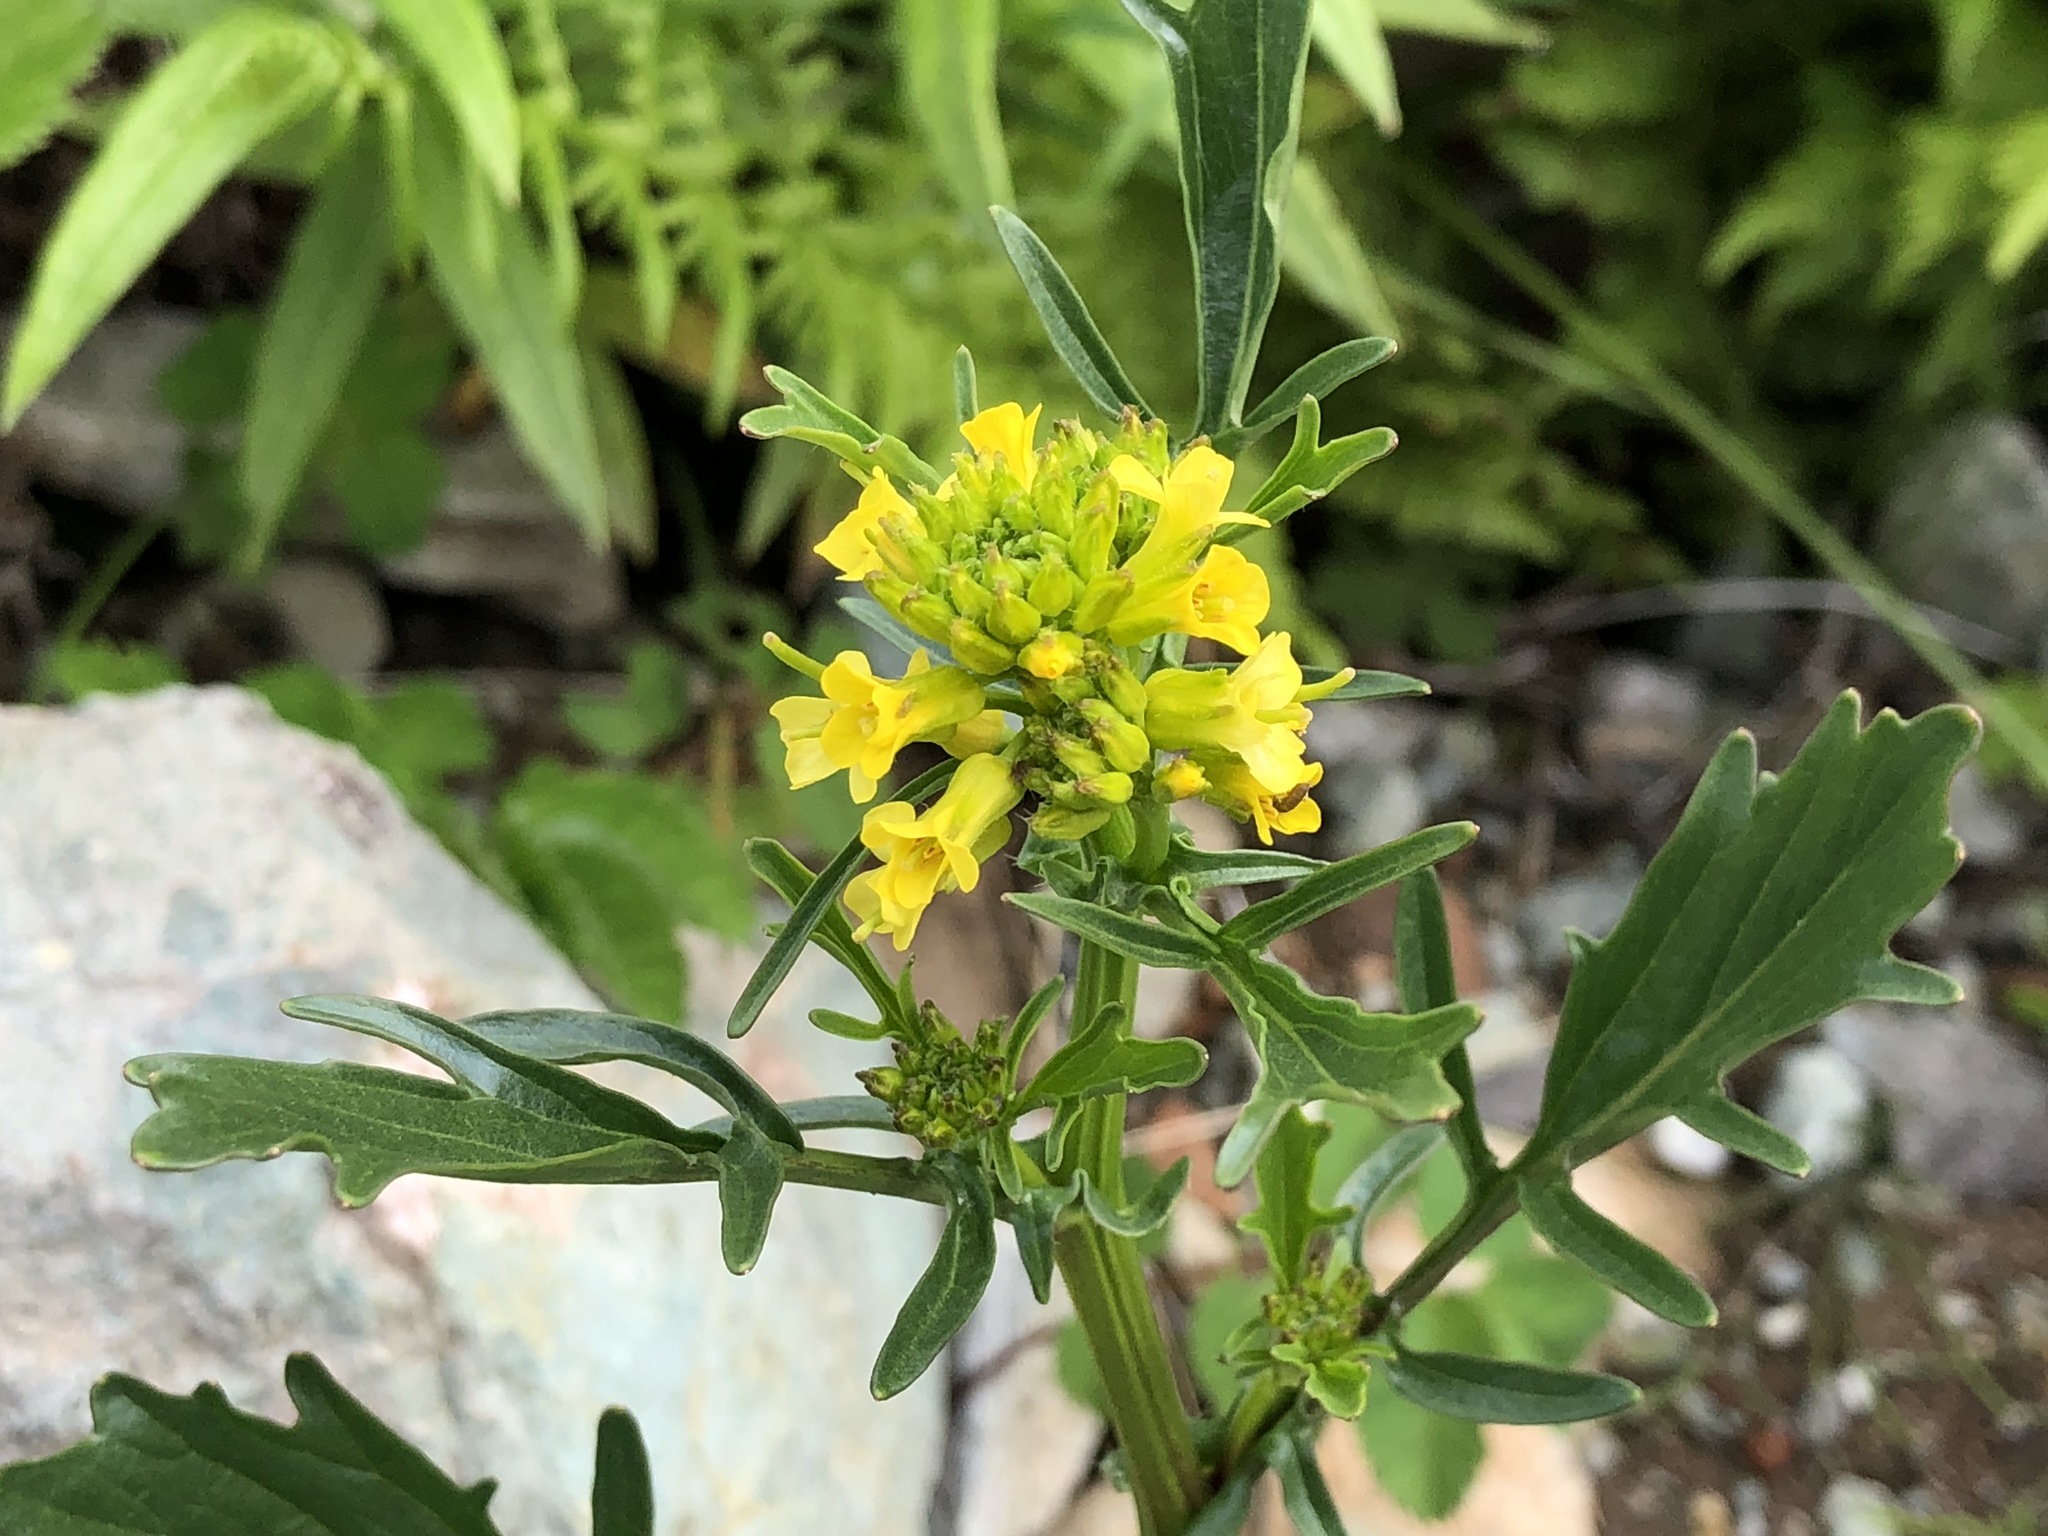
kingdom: Plantae
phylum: Tracheophyta
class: Magnoliopsida
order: Brassicales
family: Brassicaceae
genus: Barbarea
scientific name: Barbarea orthoceras
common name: American wintercress
